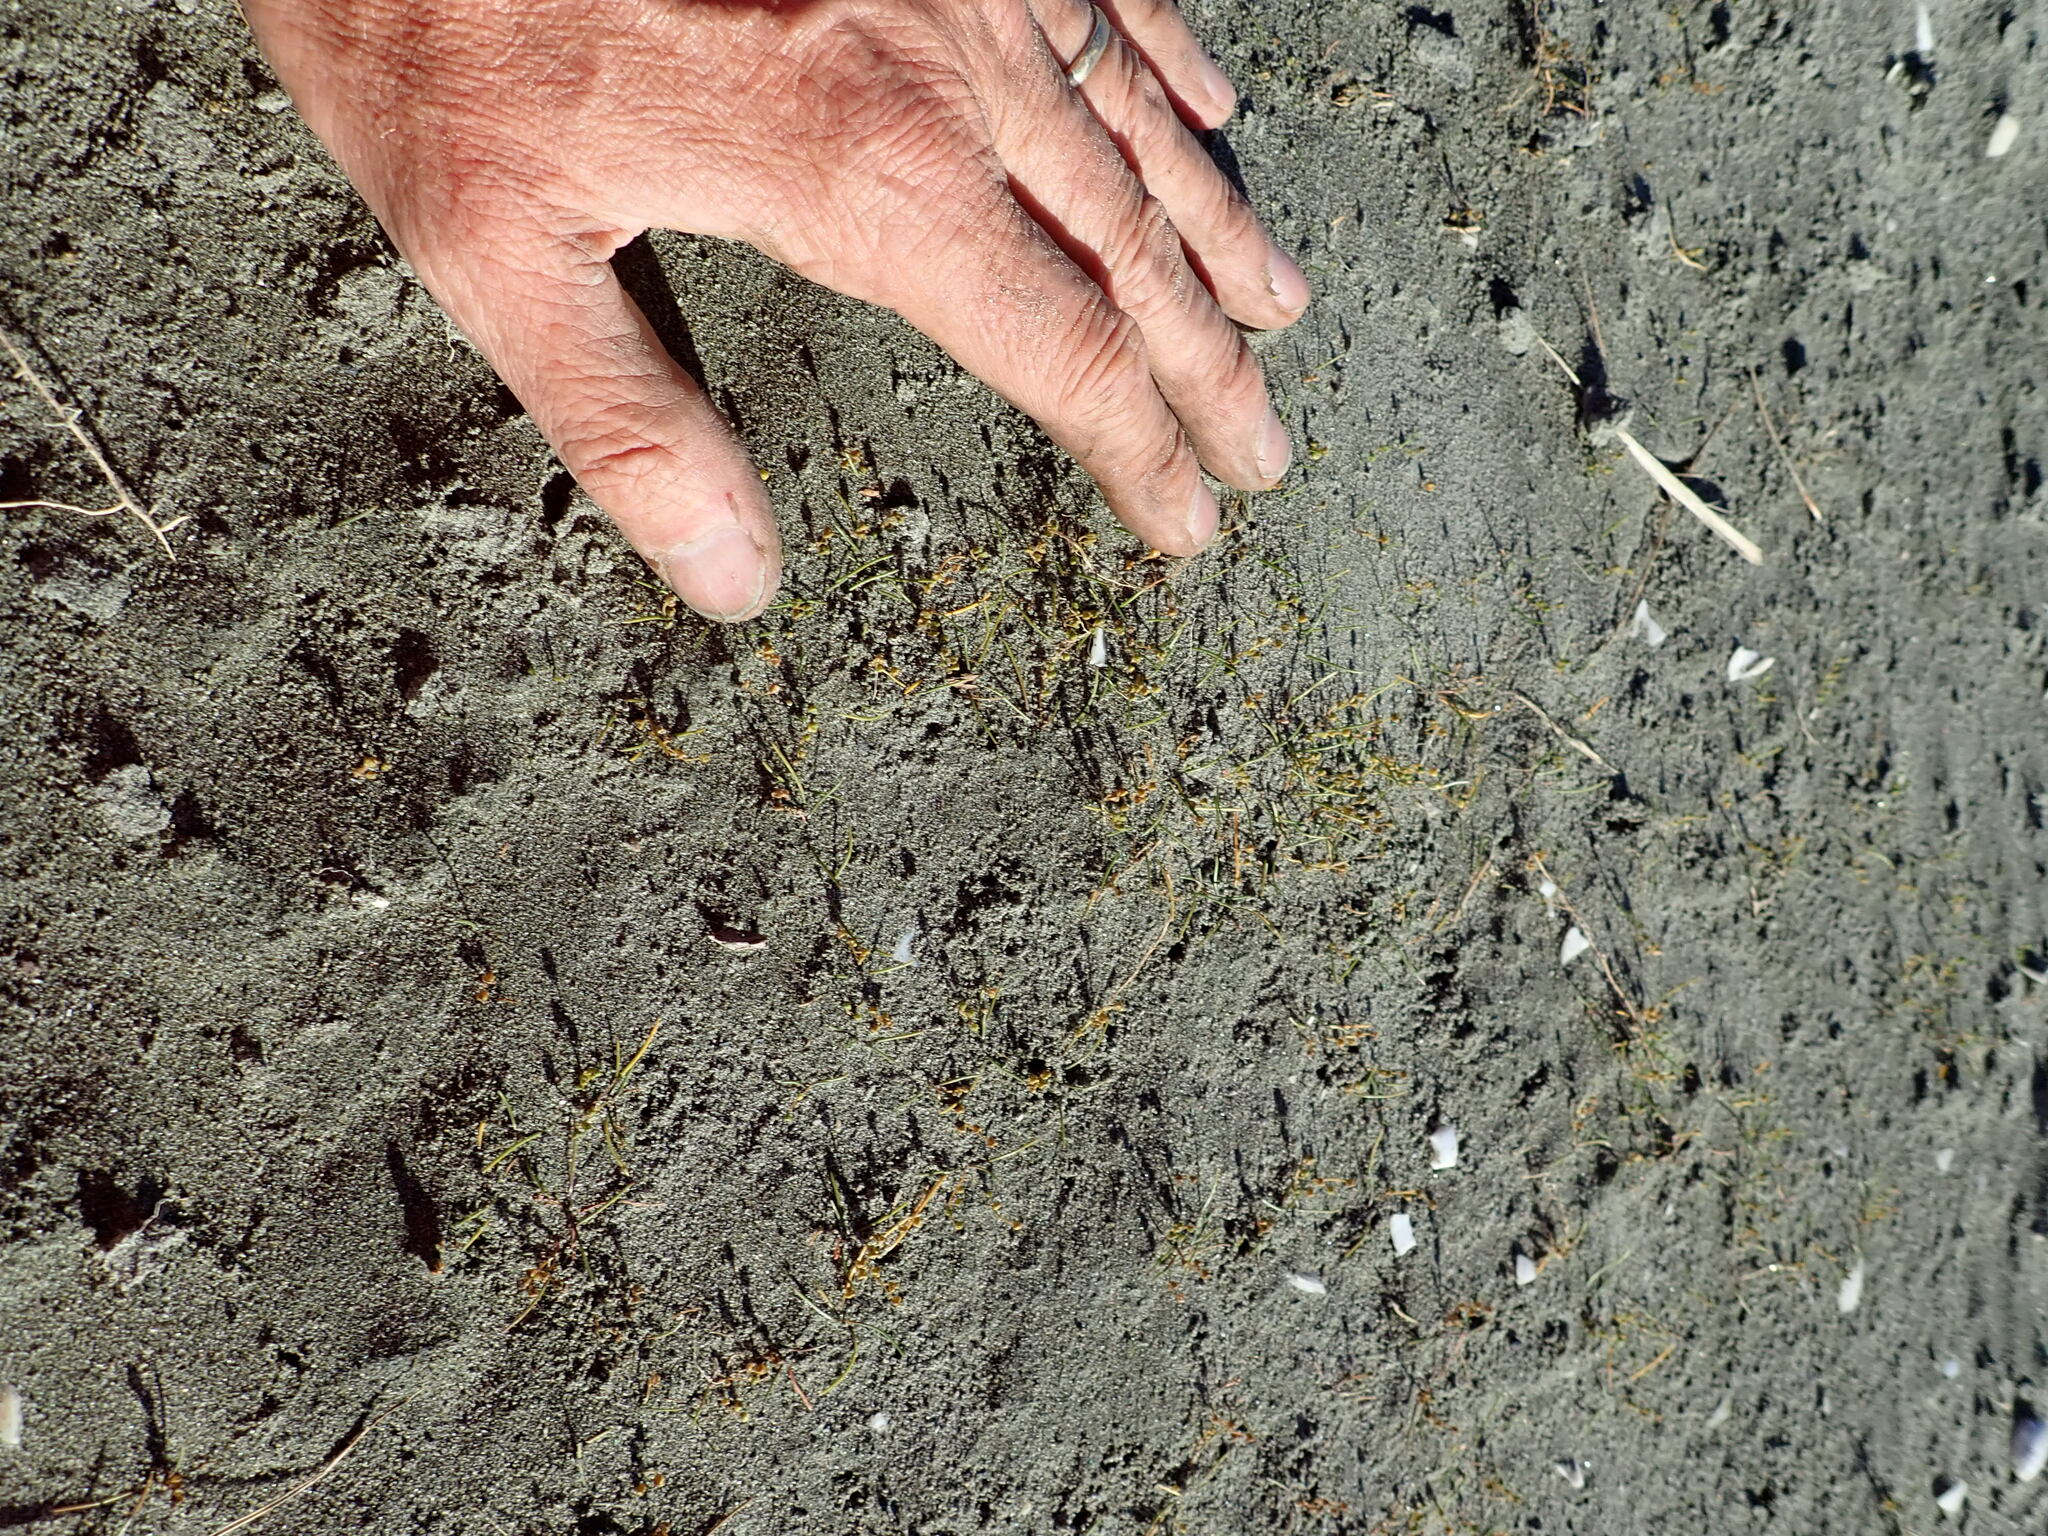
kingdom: Plantae
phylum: Tracheophyta
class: Liliopsida
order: Alismatales
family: Juncaginaceae
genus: Triglochin
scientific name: Triglochin striata
